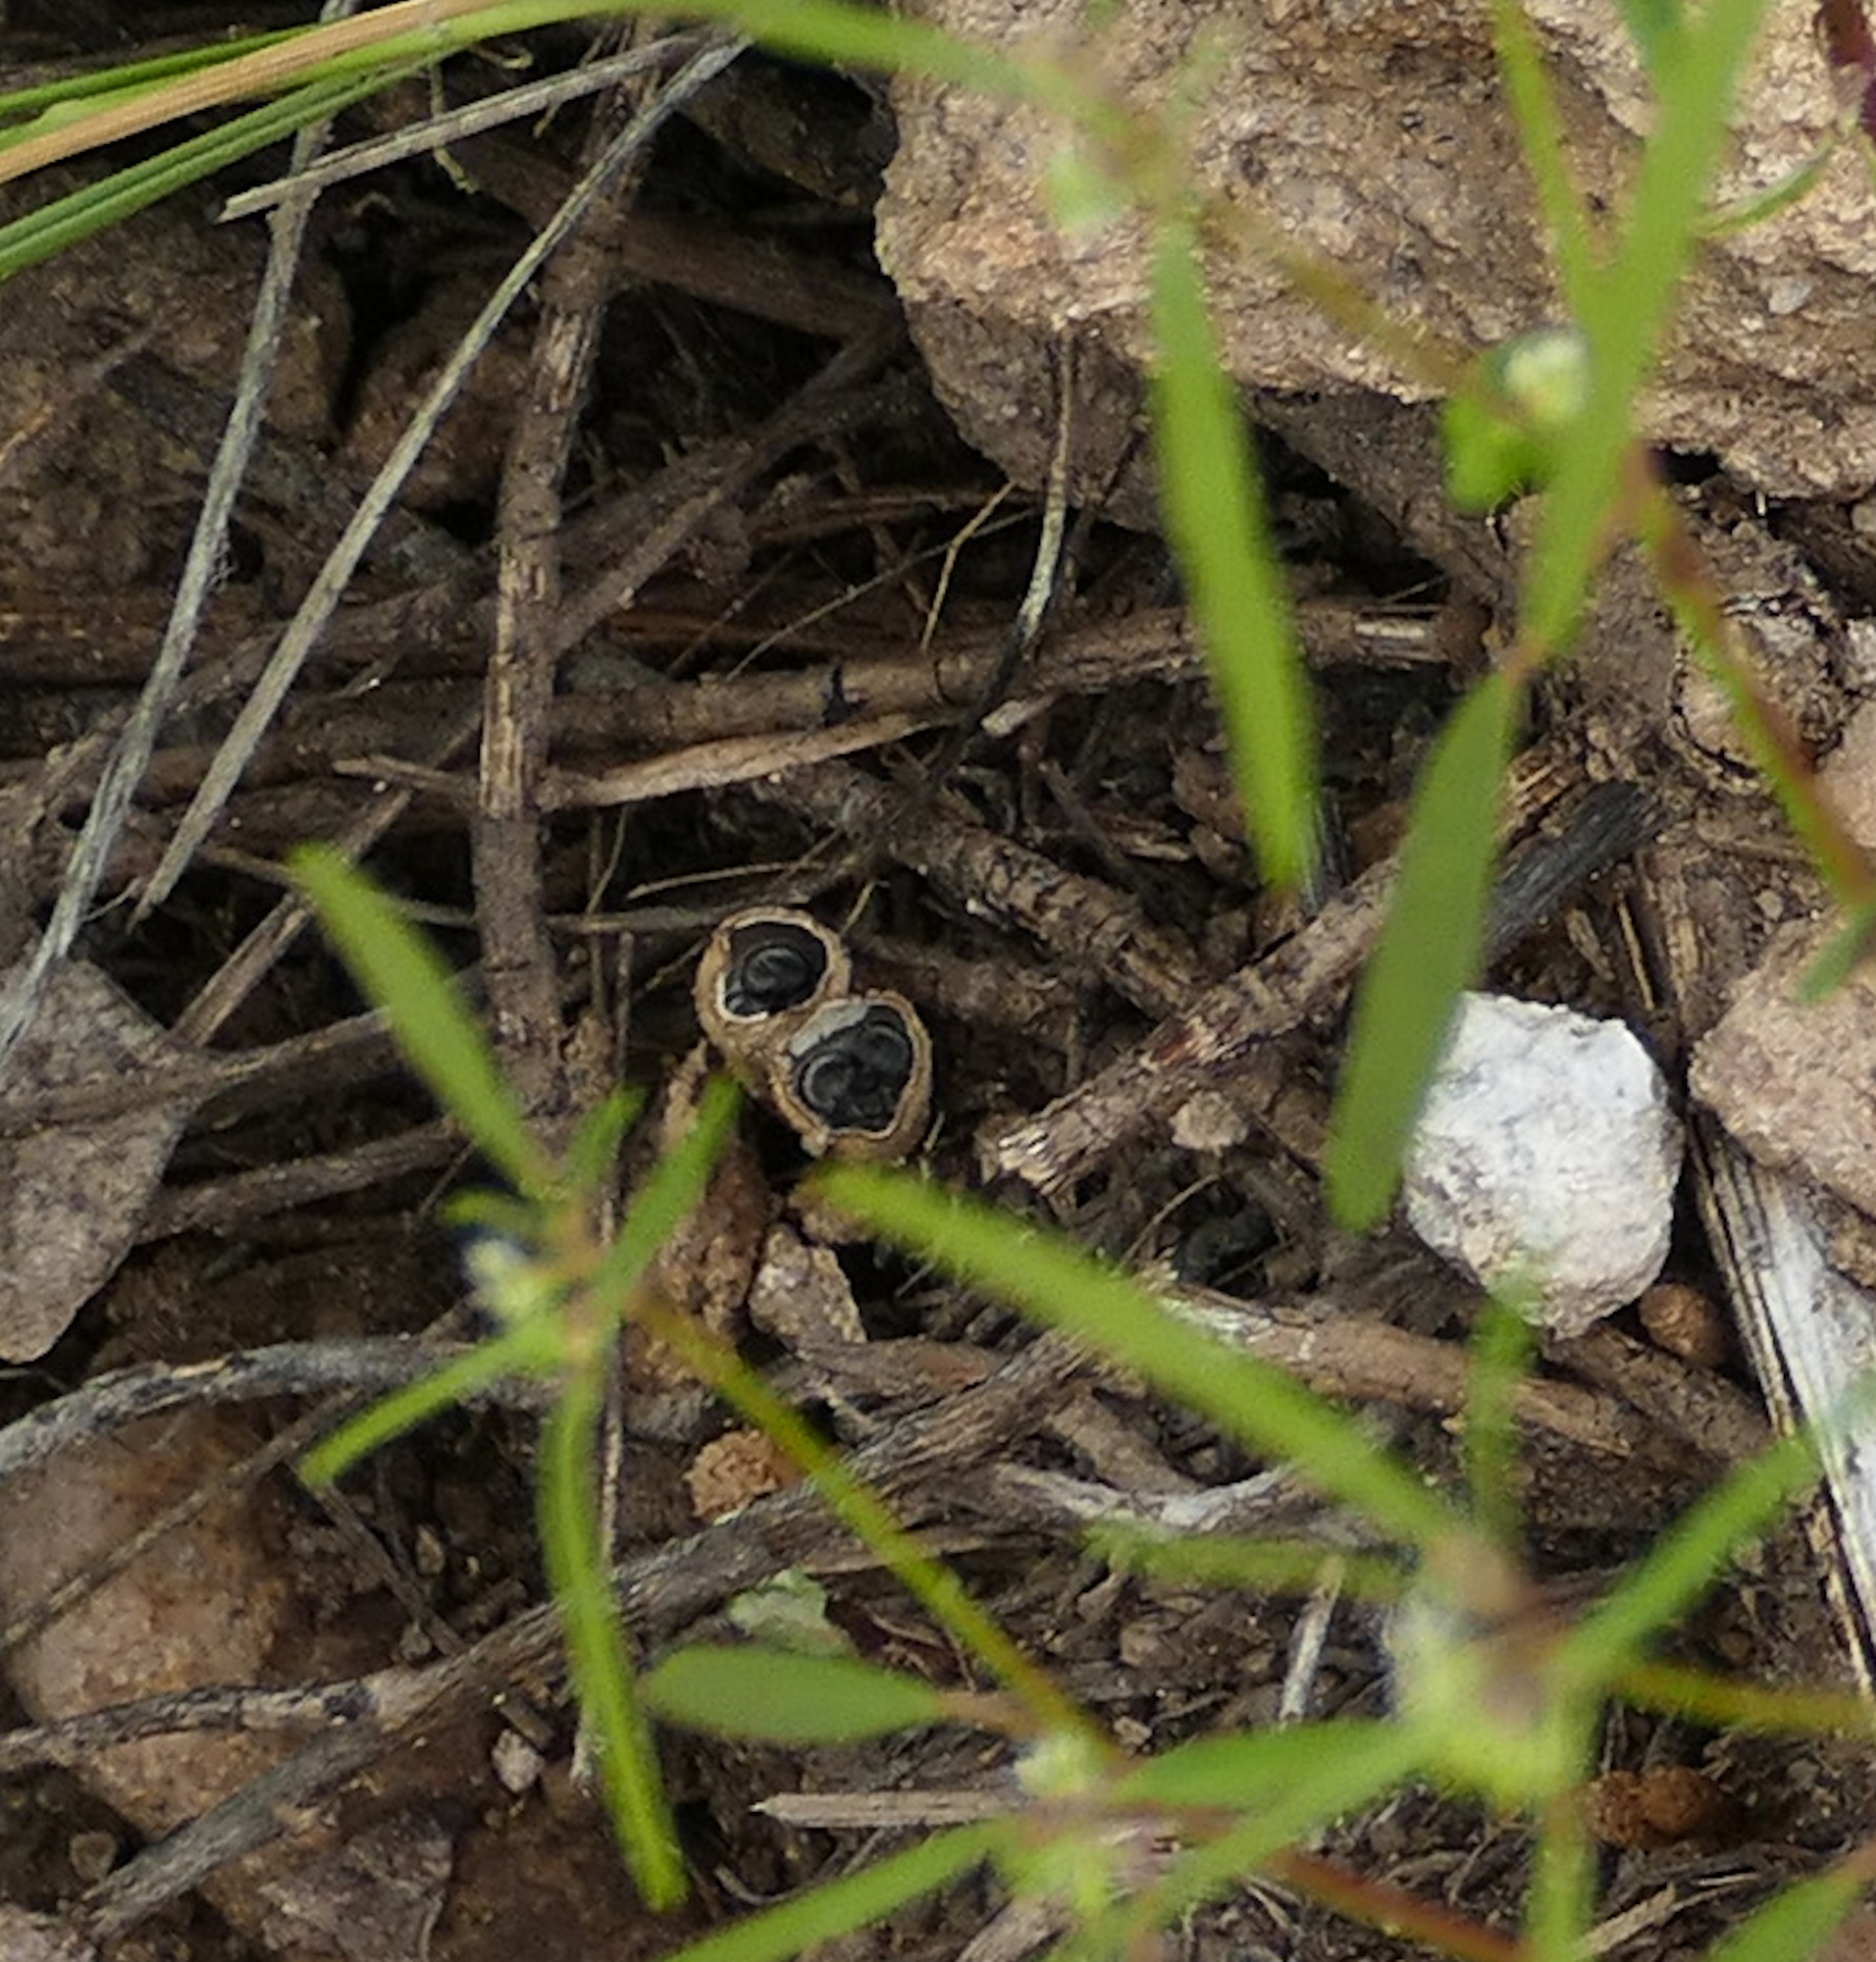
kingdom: Fungi
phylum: Basidiomycota
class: Agaricomycetes
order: Agaricales
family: Agaricaceae
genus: Cyathus
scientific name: Cyathus stercoreus
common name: Dung bird's nest
